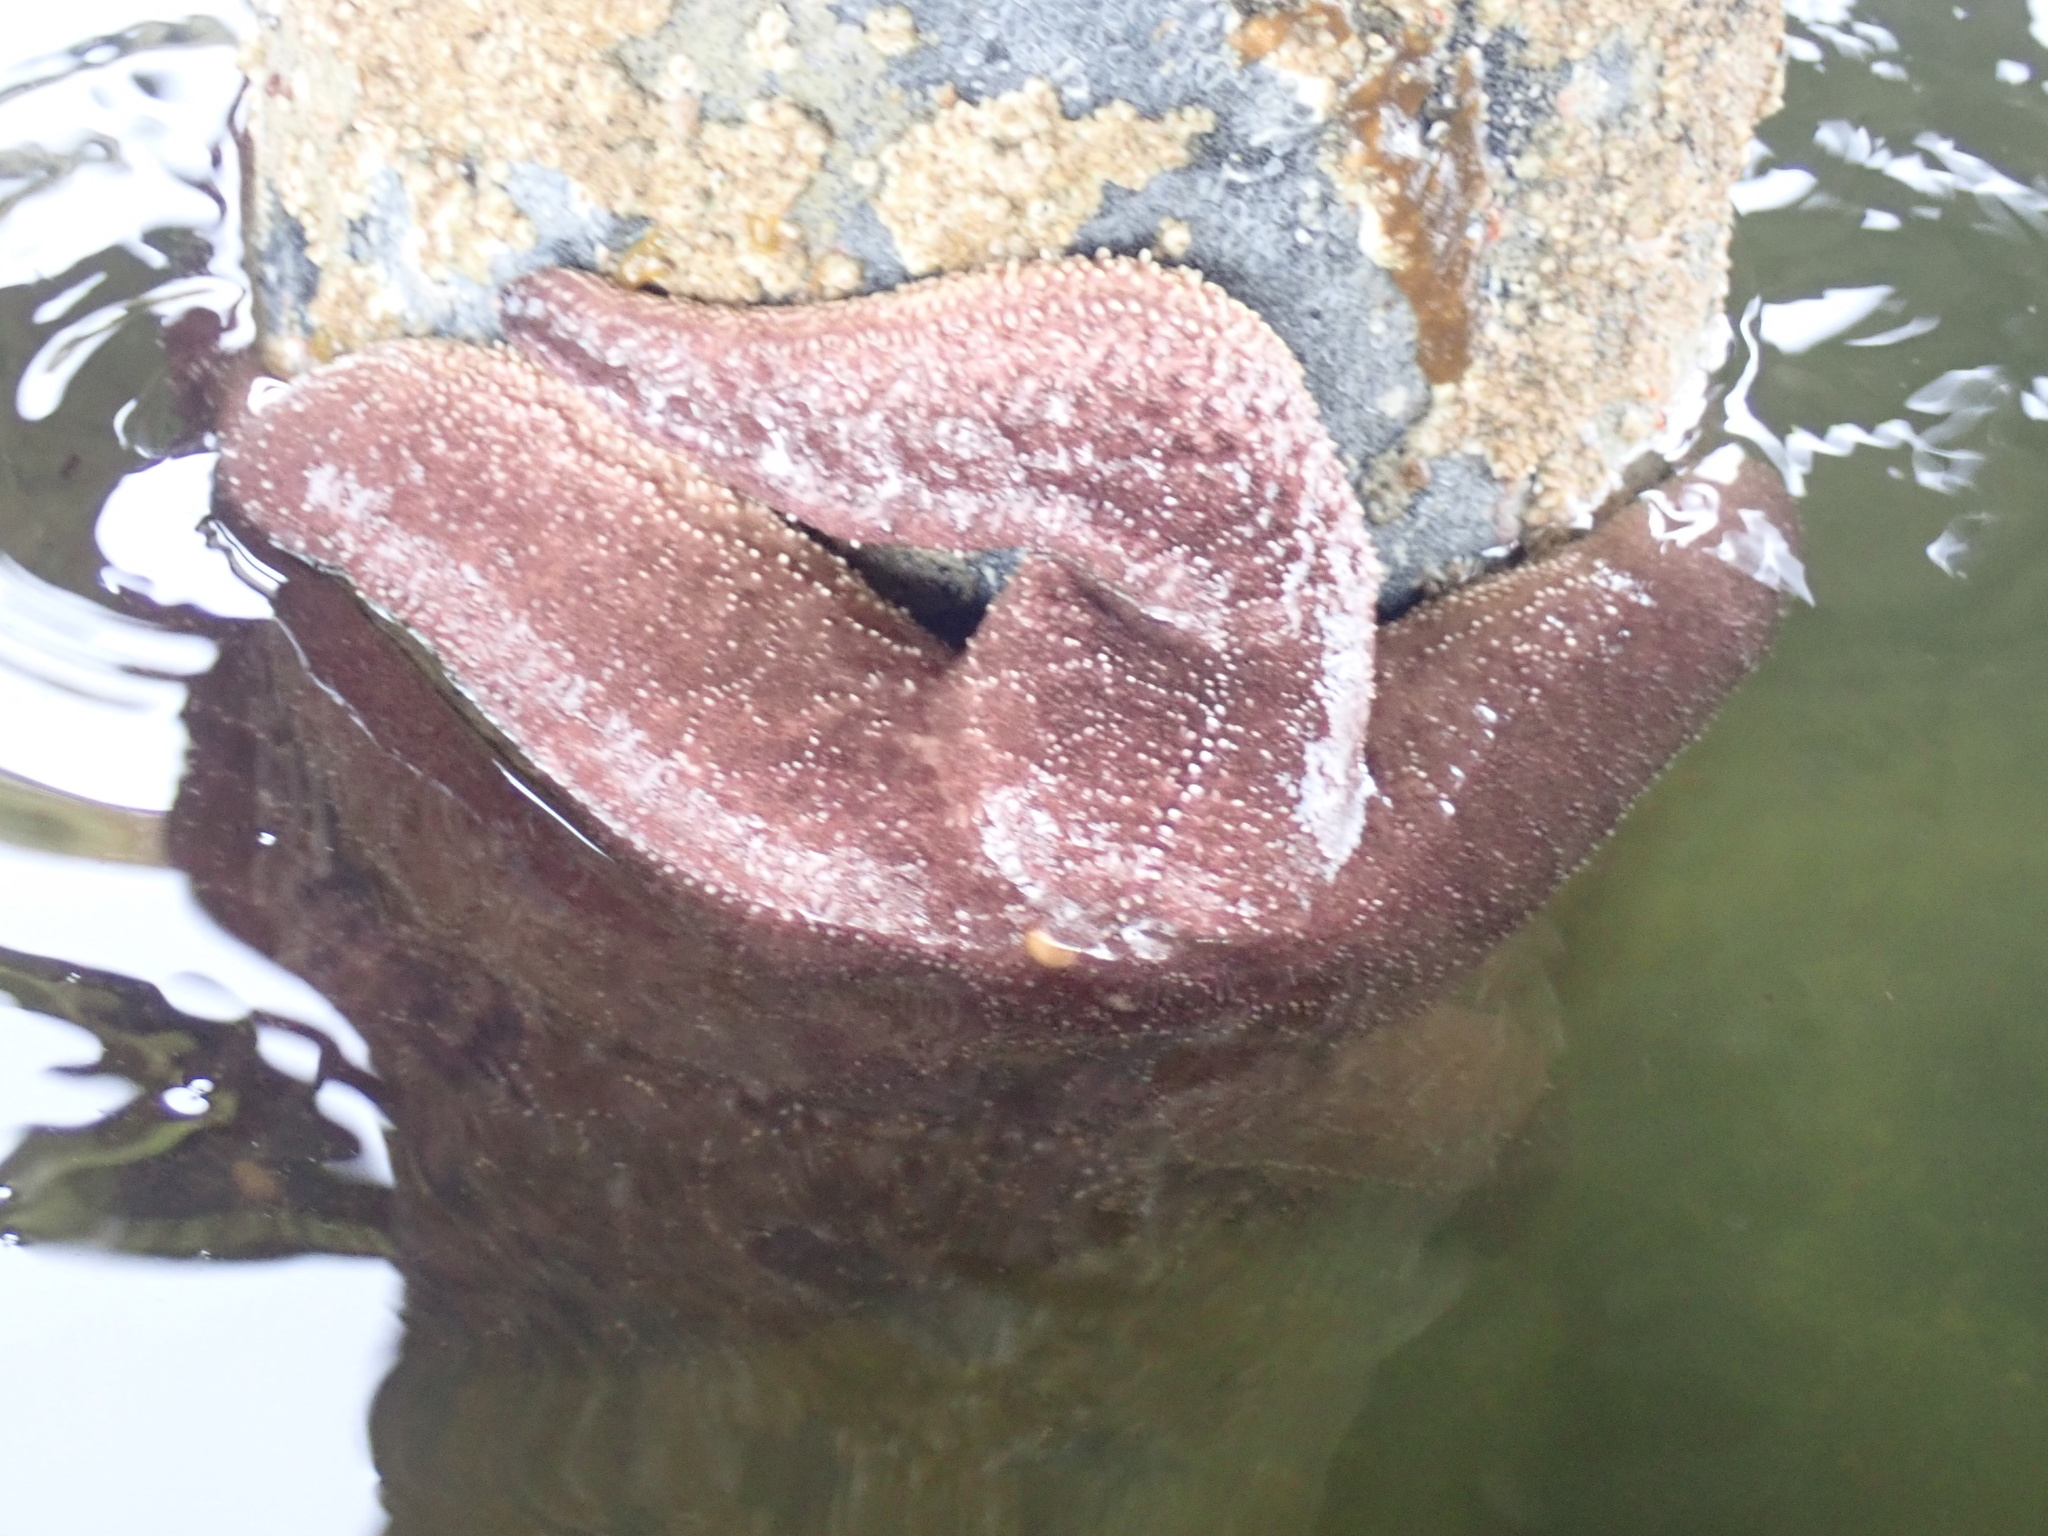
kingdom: Animalia
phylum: Echinodermata
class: Asteroidea
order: Forcipulatida
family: Asteriidae
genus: Pisaster
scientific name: Pisaster ochraceus
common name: Ochre stars
